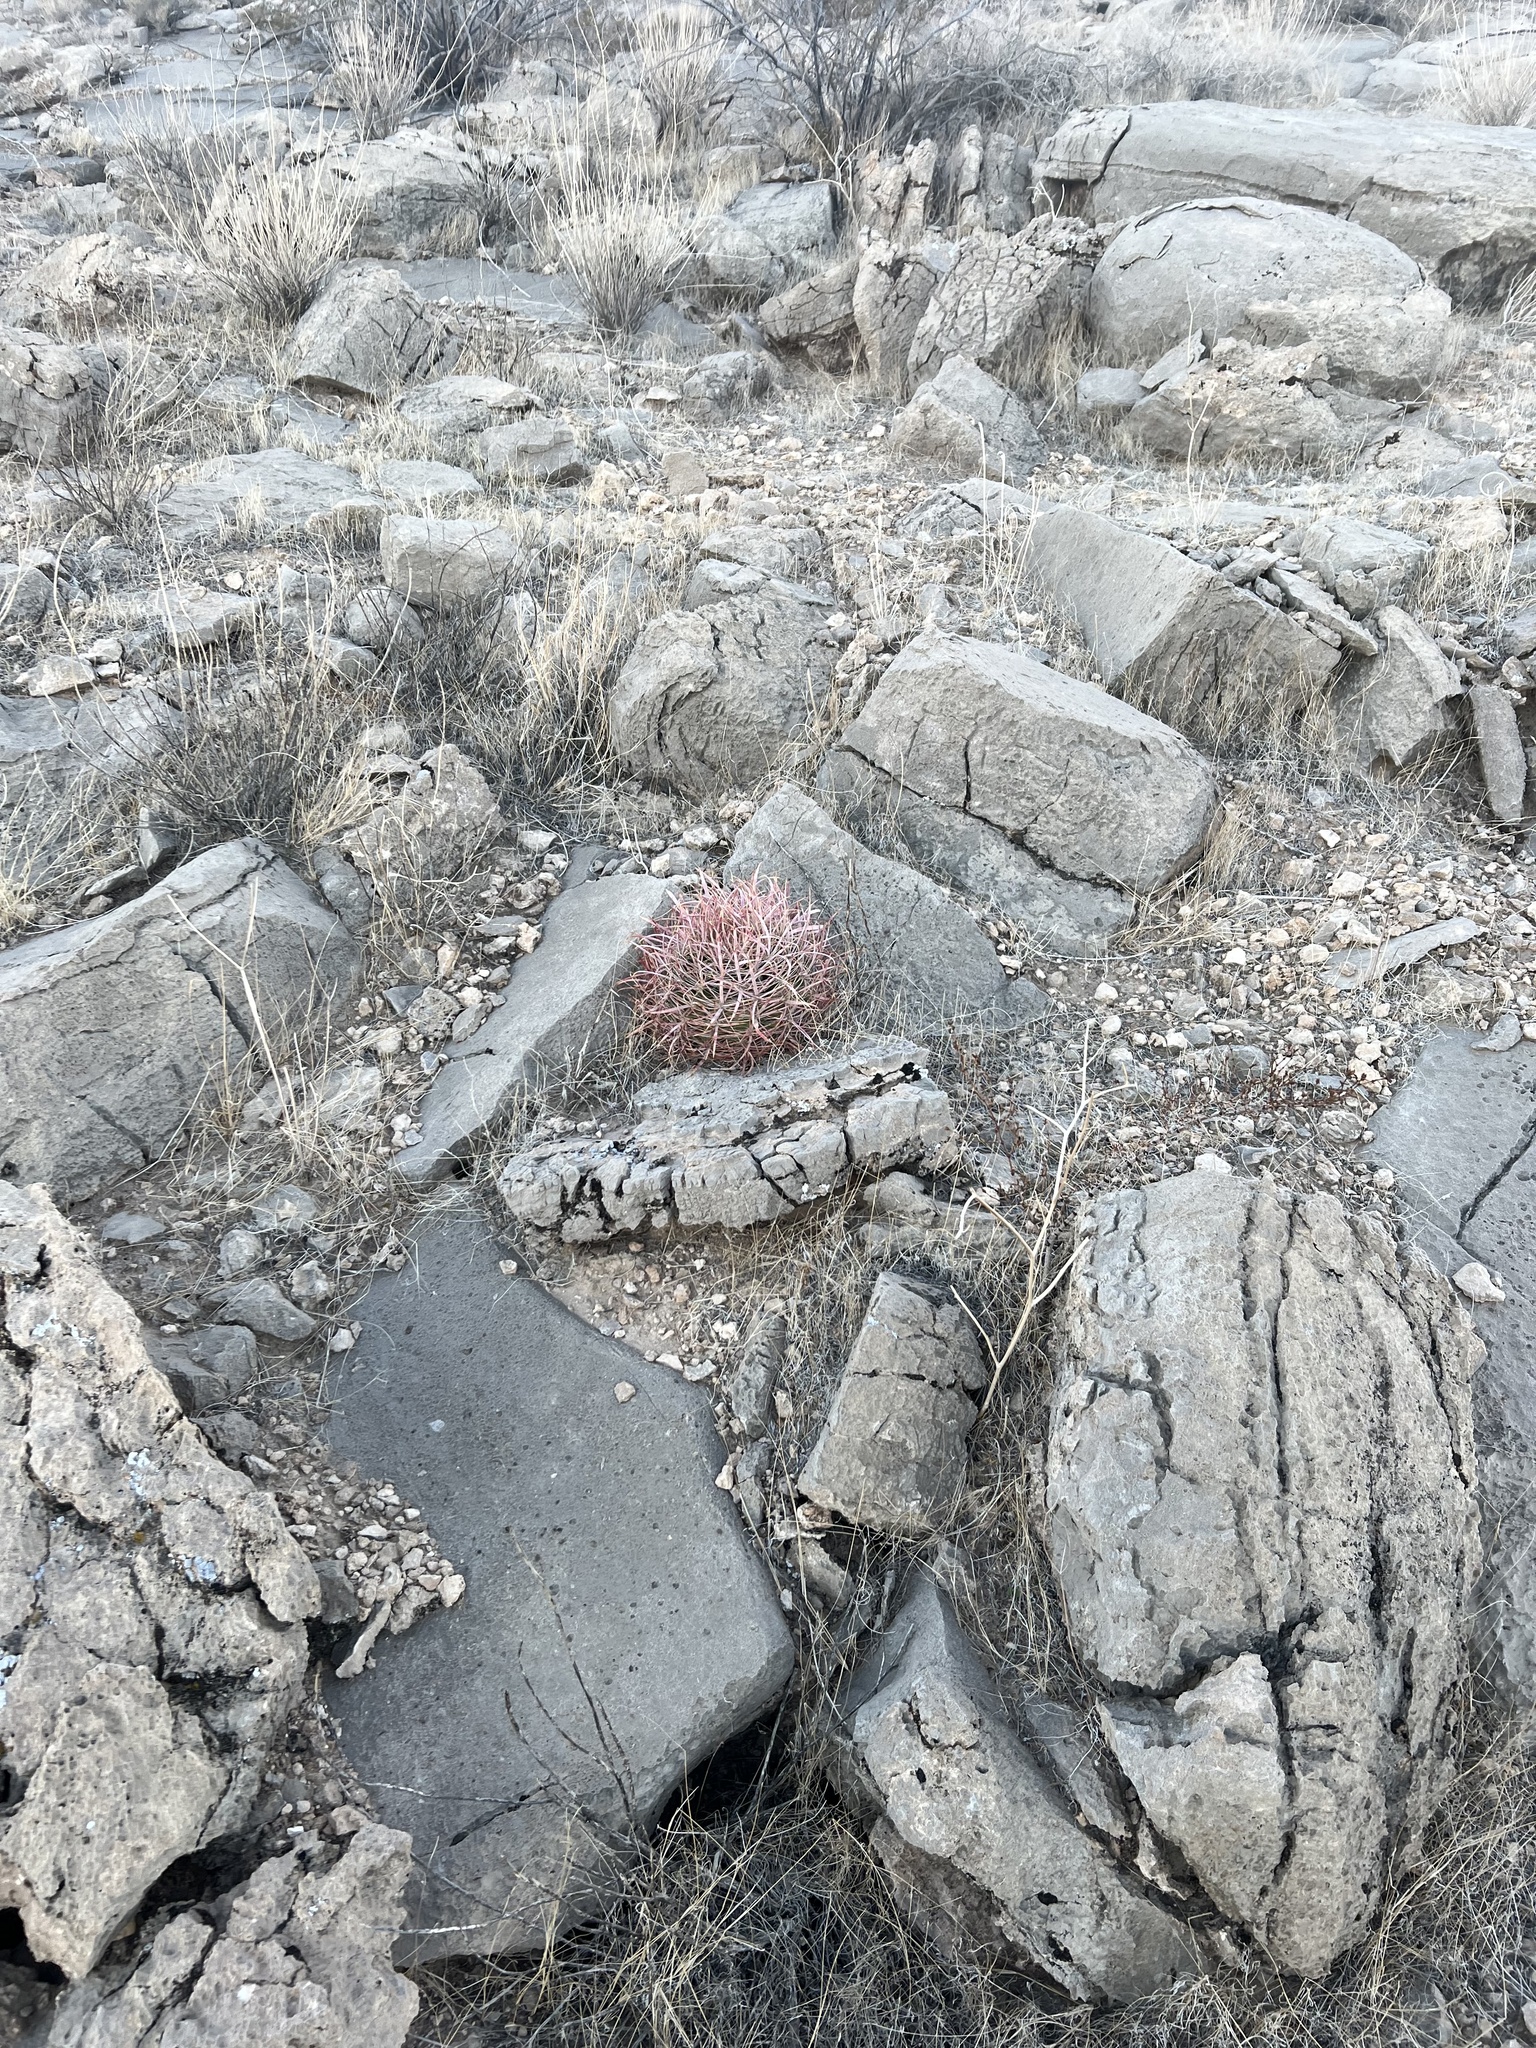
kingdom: Plantae
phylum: Tracheophyta
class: Magnoliopsida
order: Caryophyllales
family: Cactaceae
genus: Ferocactus
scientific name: Ferocactus cylindraceus
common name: California barrel cactus
